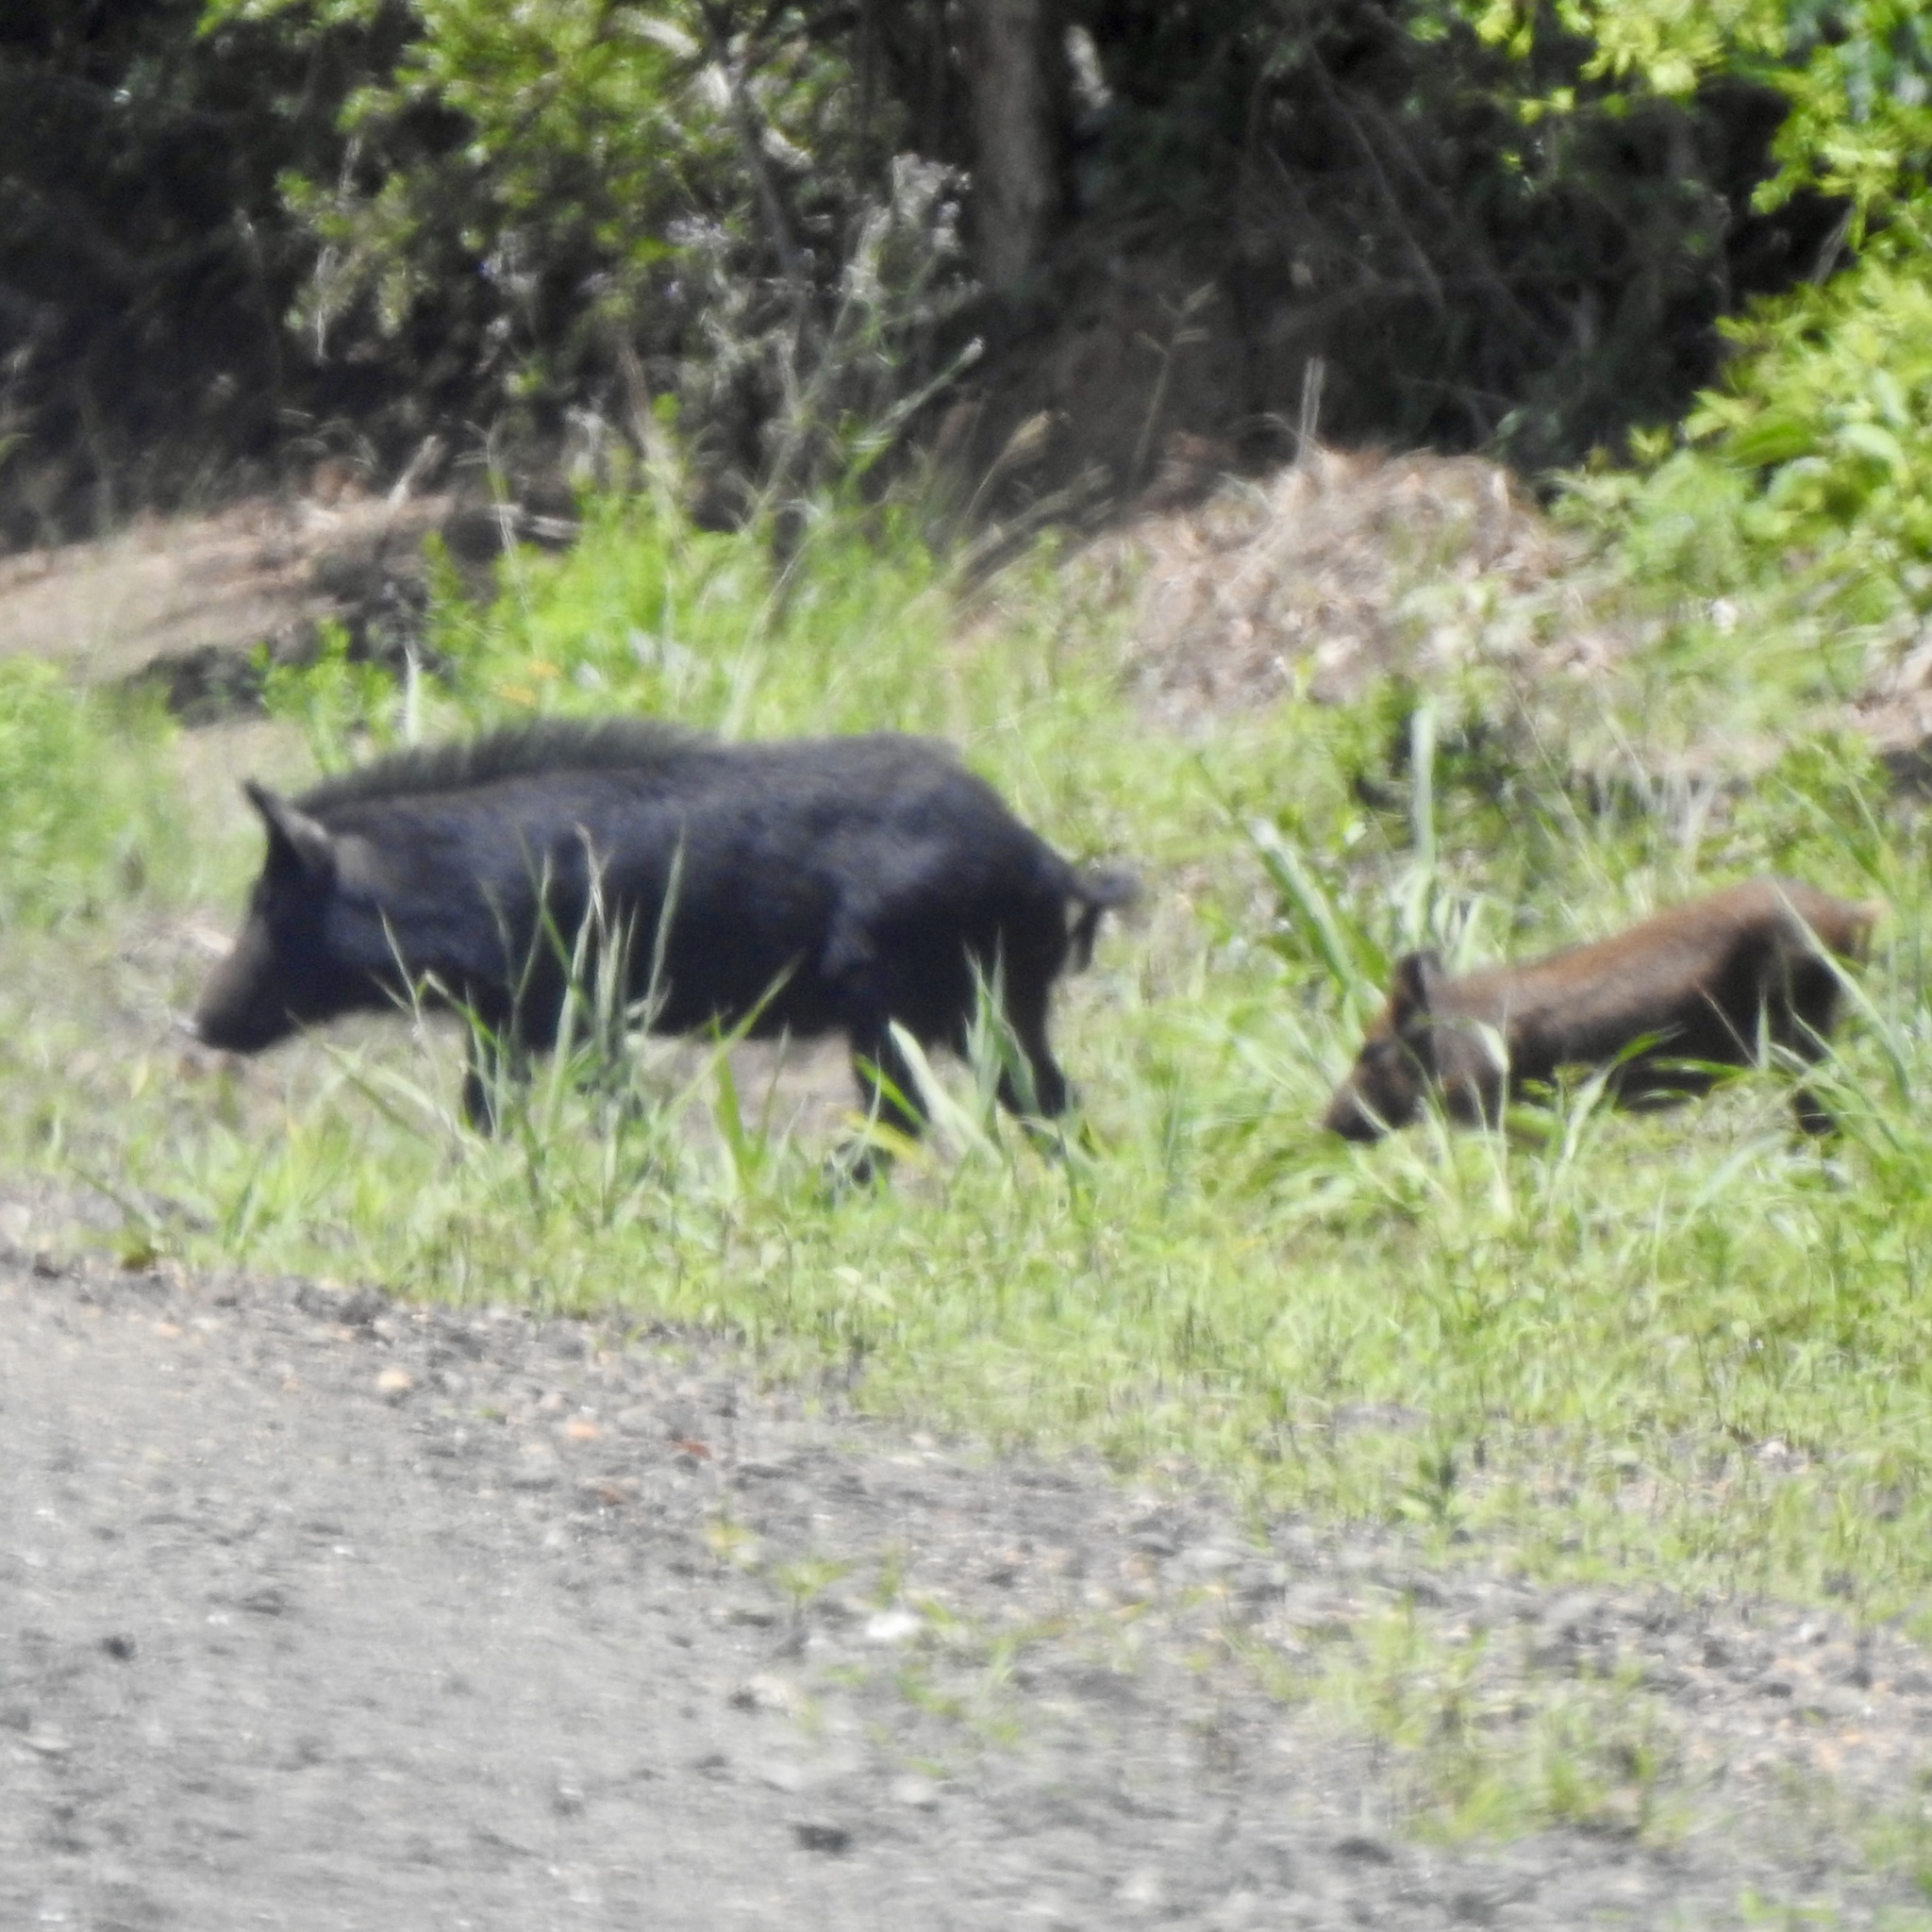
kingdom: Animalia
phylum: Chordata
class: Mammalia
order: Artiodactyla
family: Suidae
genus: Sus
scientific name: Sus scrofa
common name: Wild boar
